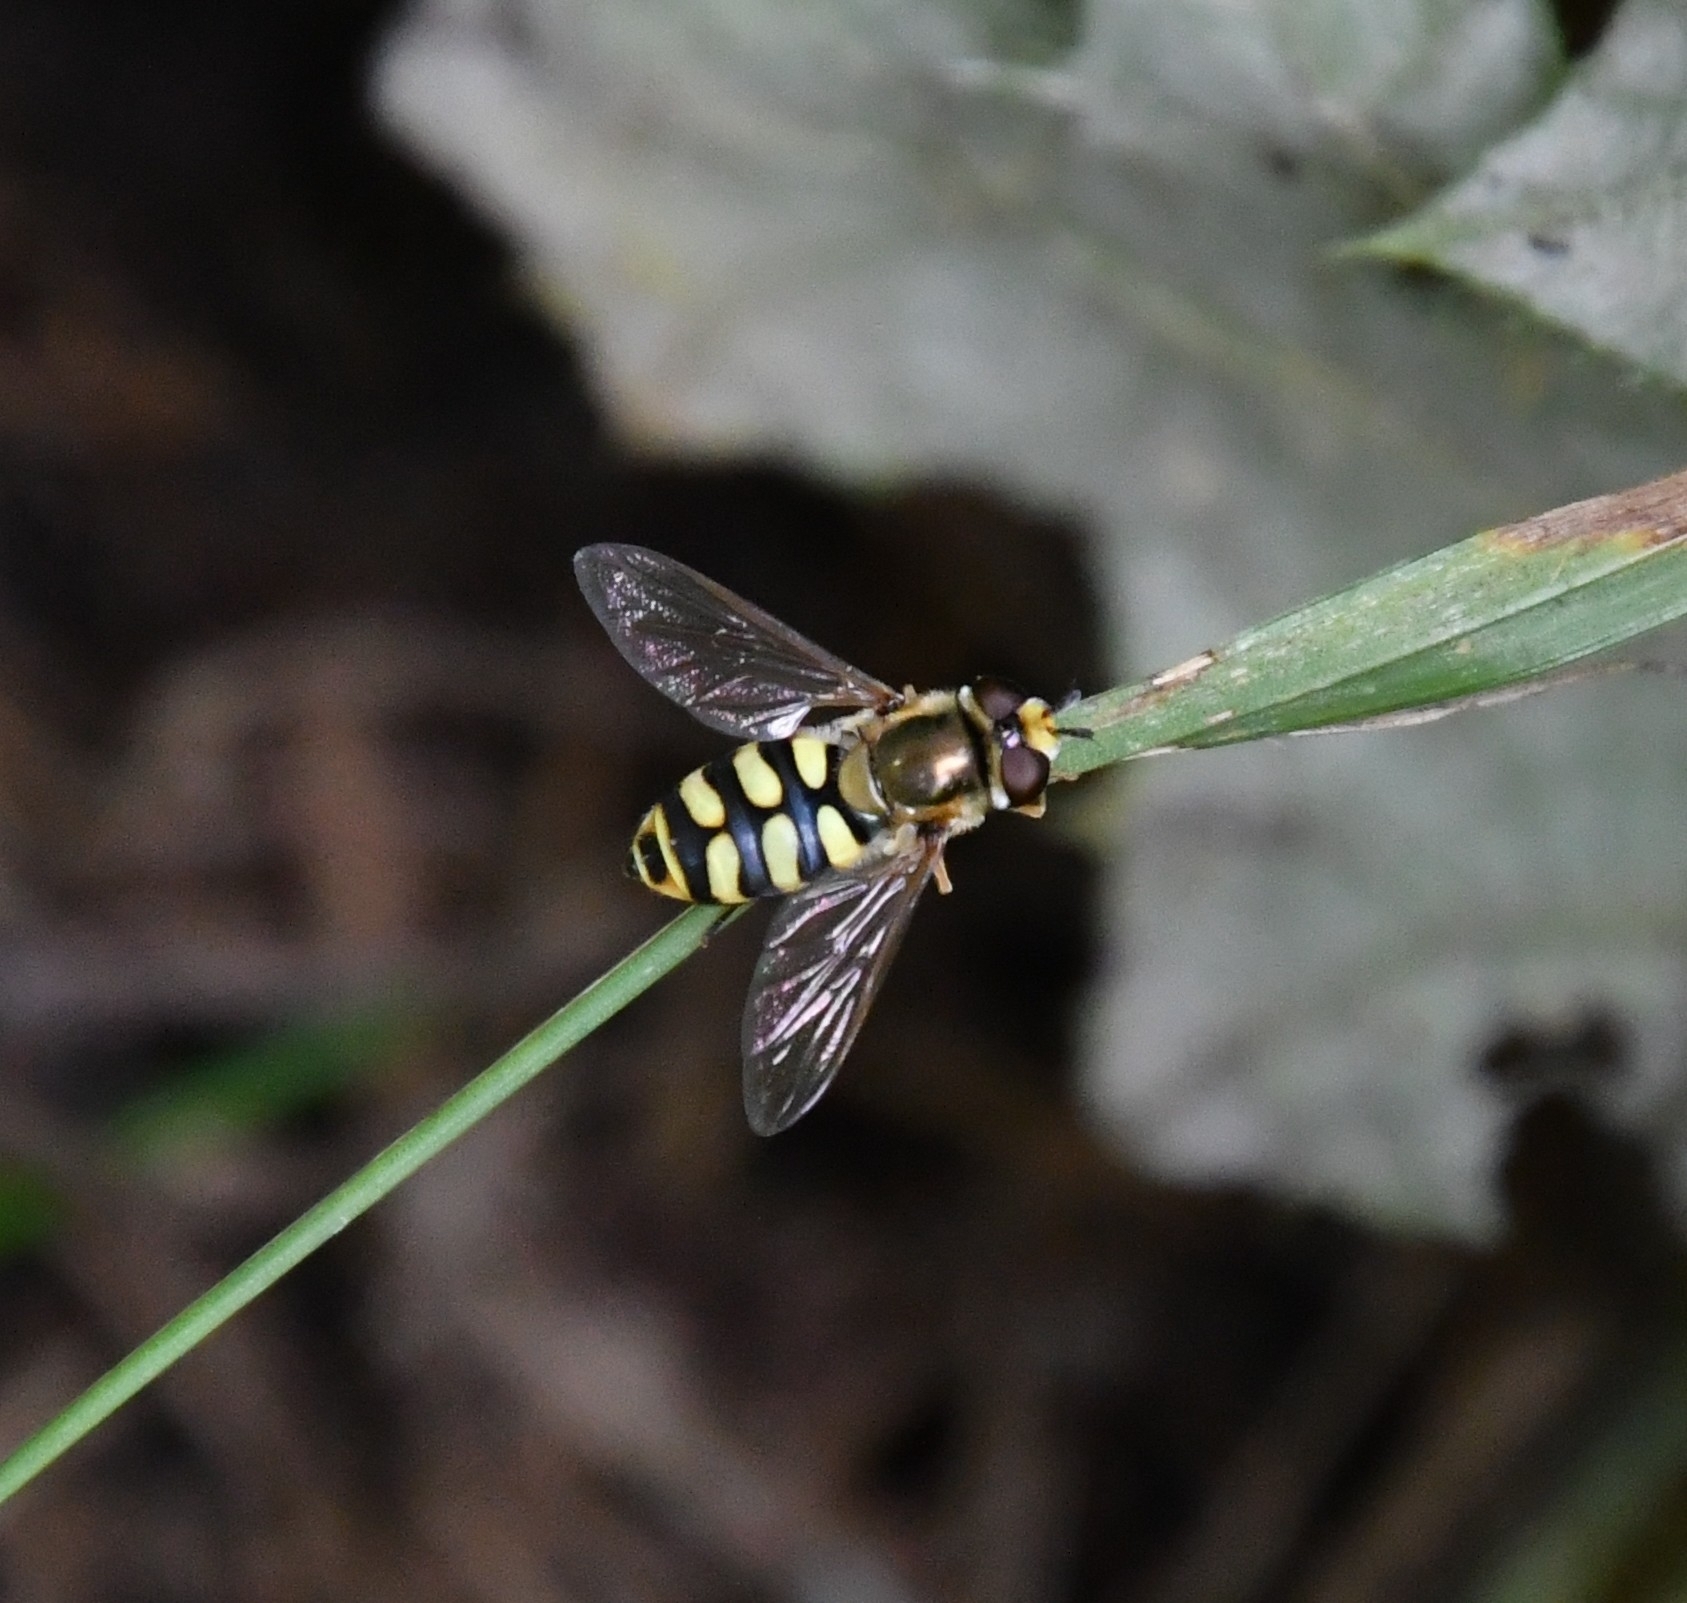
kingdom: Animalia
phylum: Arthropoda
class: Insecta
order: Diptera
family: Syrphidae
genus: Eupeodes
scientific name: Eupeodes corollae
